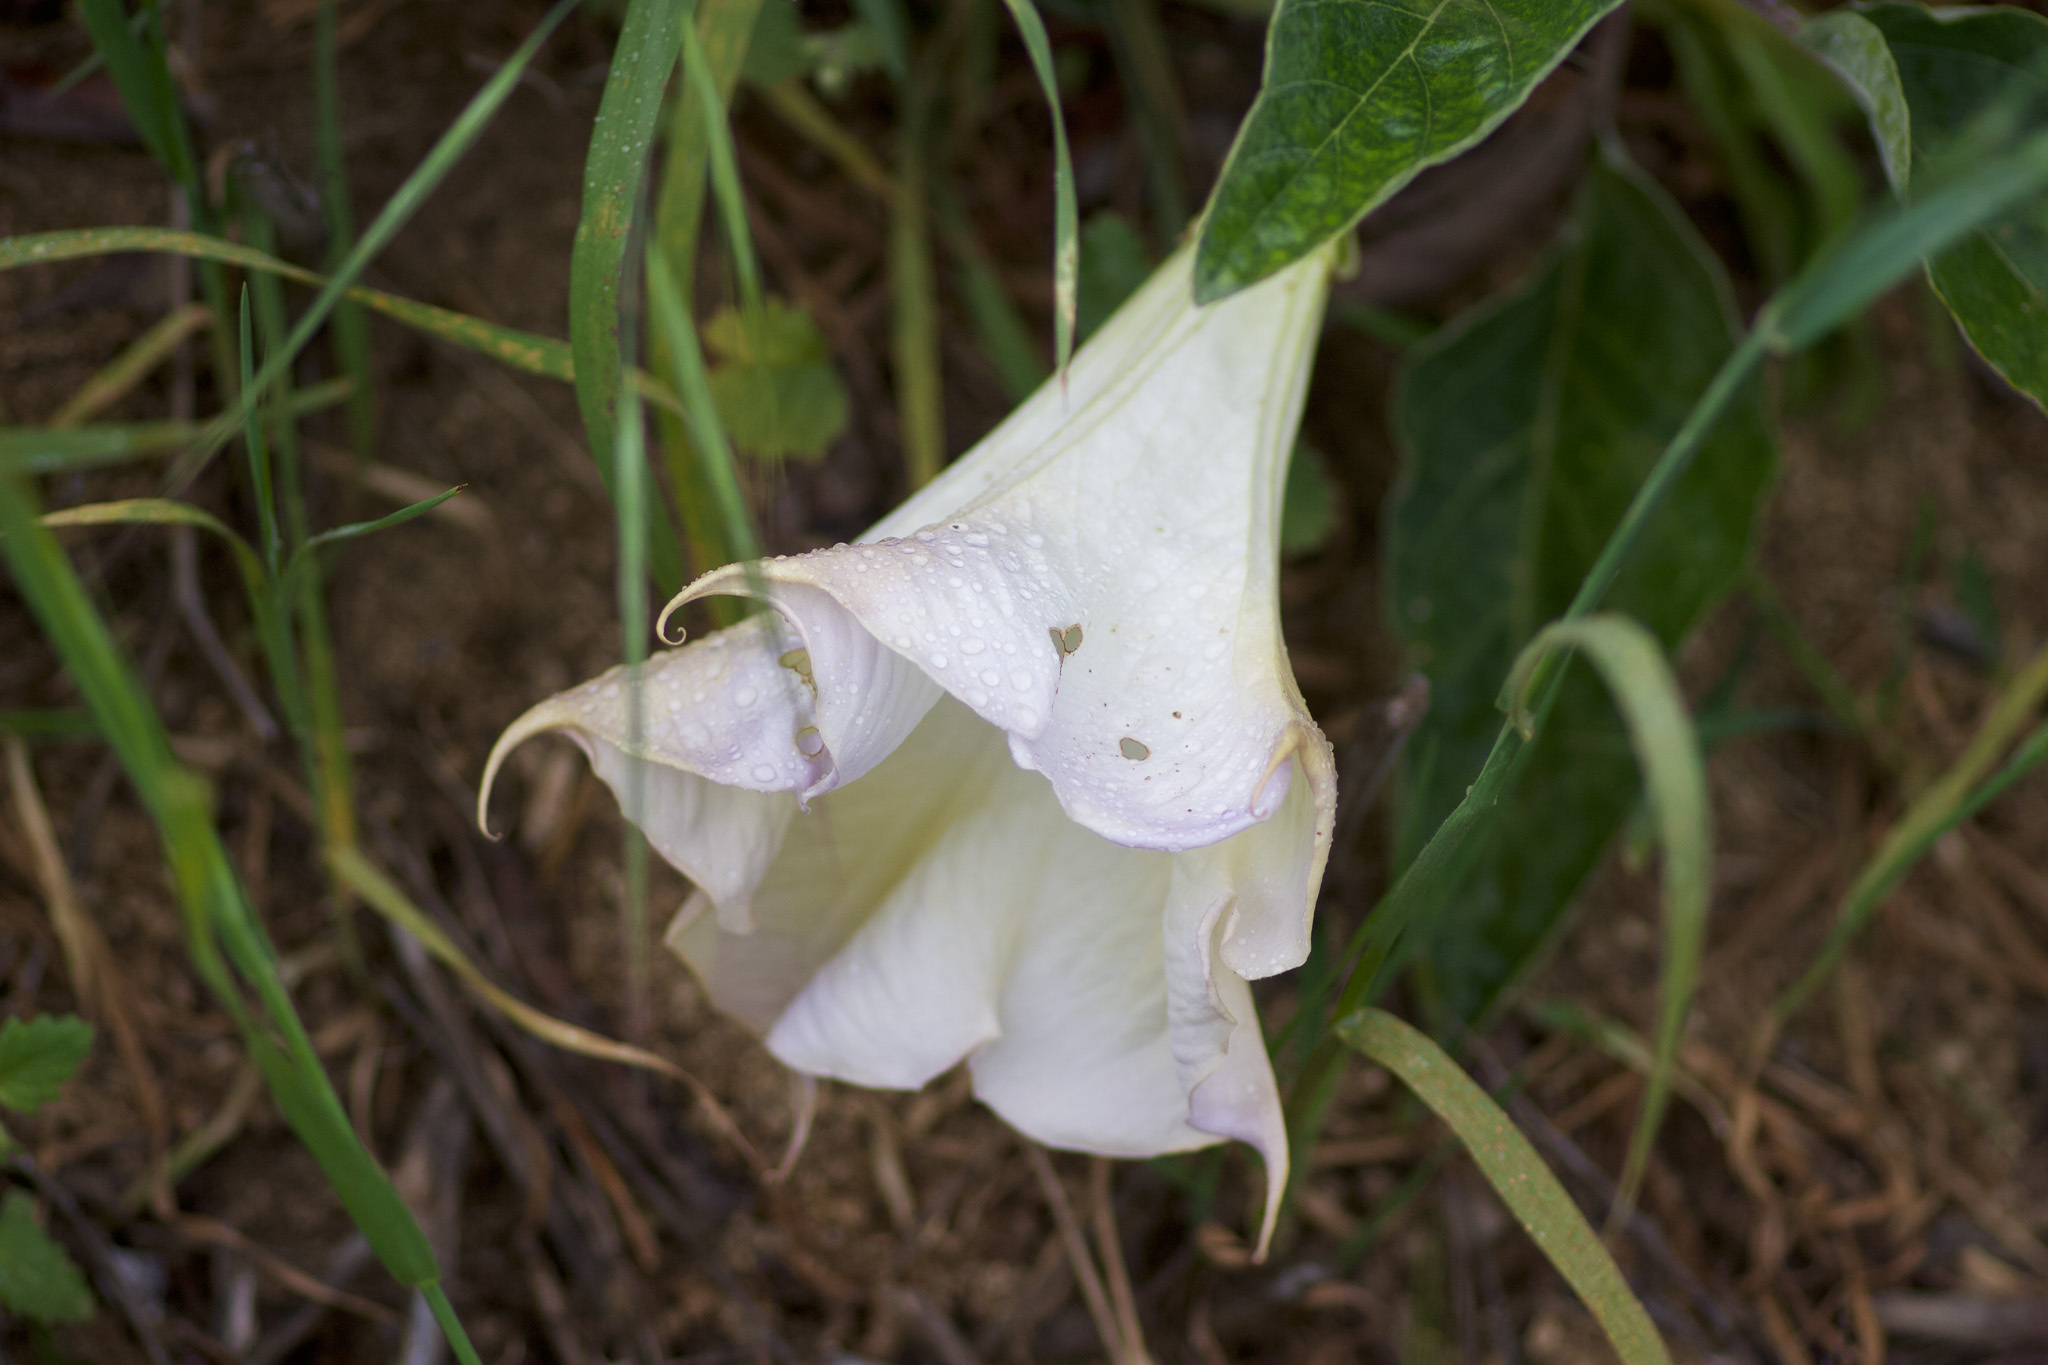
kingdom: Plantae
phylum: Tracheophyta
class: Magnoliopsida
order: Solanales
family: Solanaceae
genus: Datura
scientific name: Datura wrightii
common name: Sacred thorn-apple
